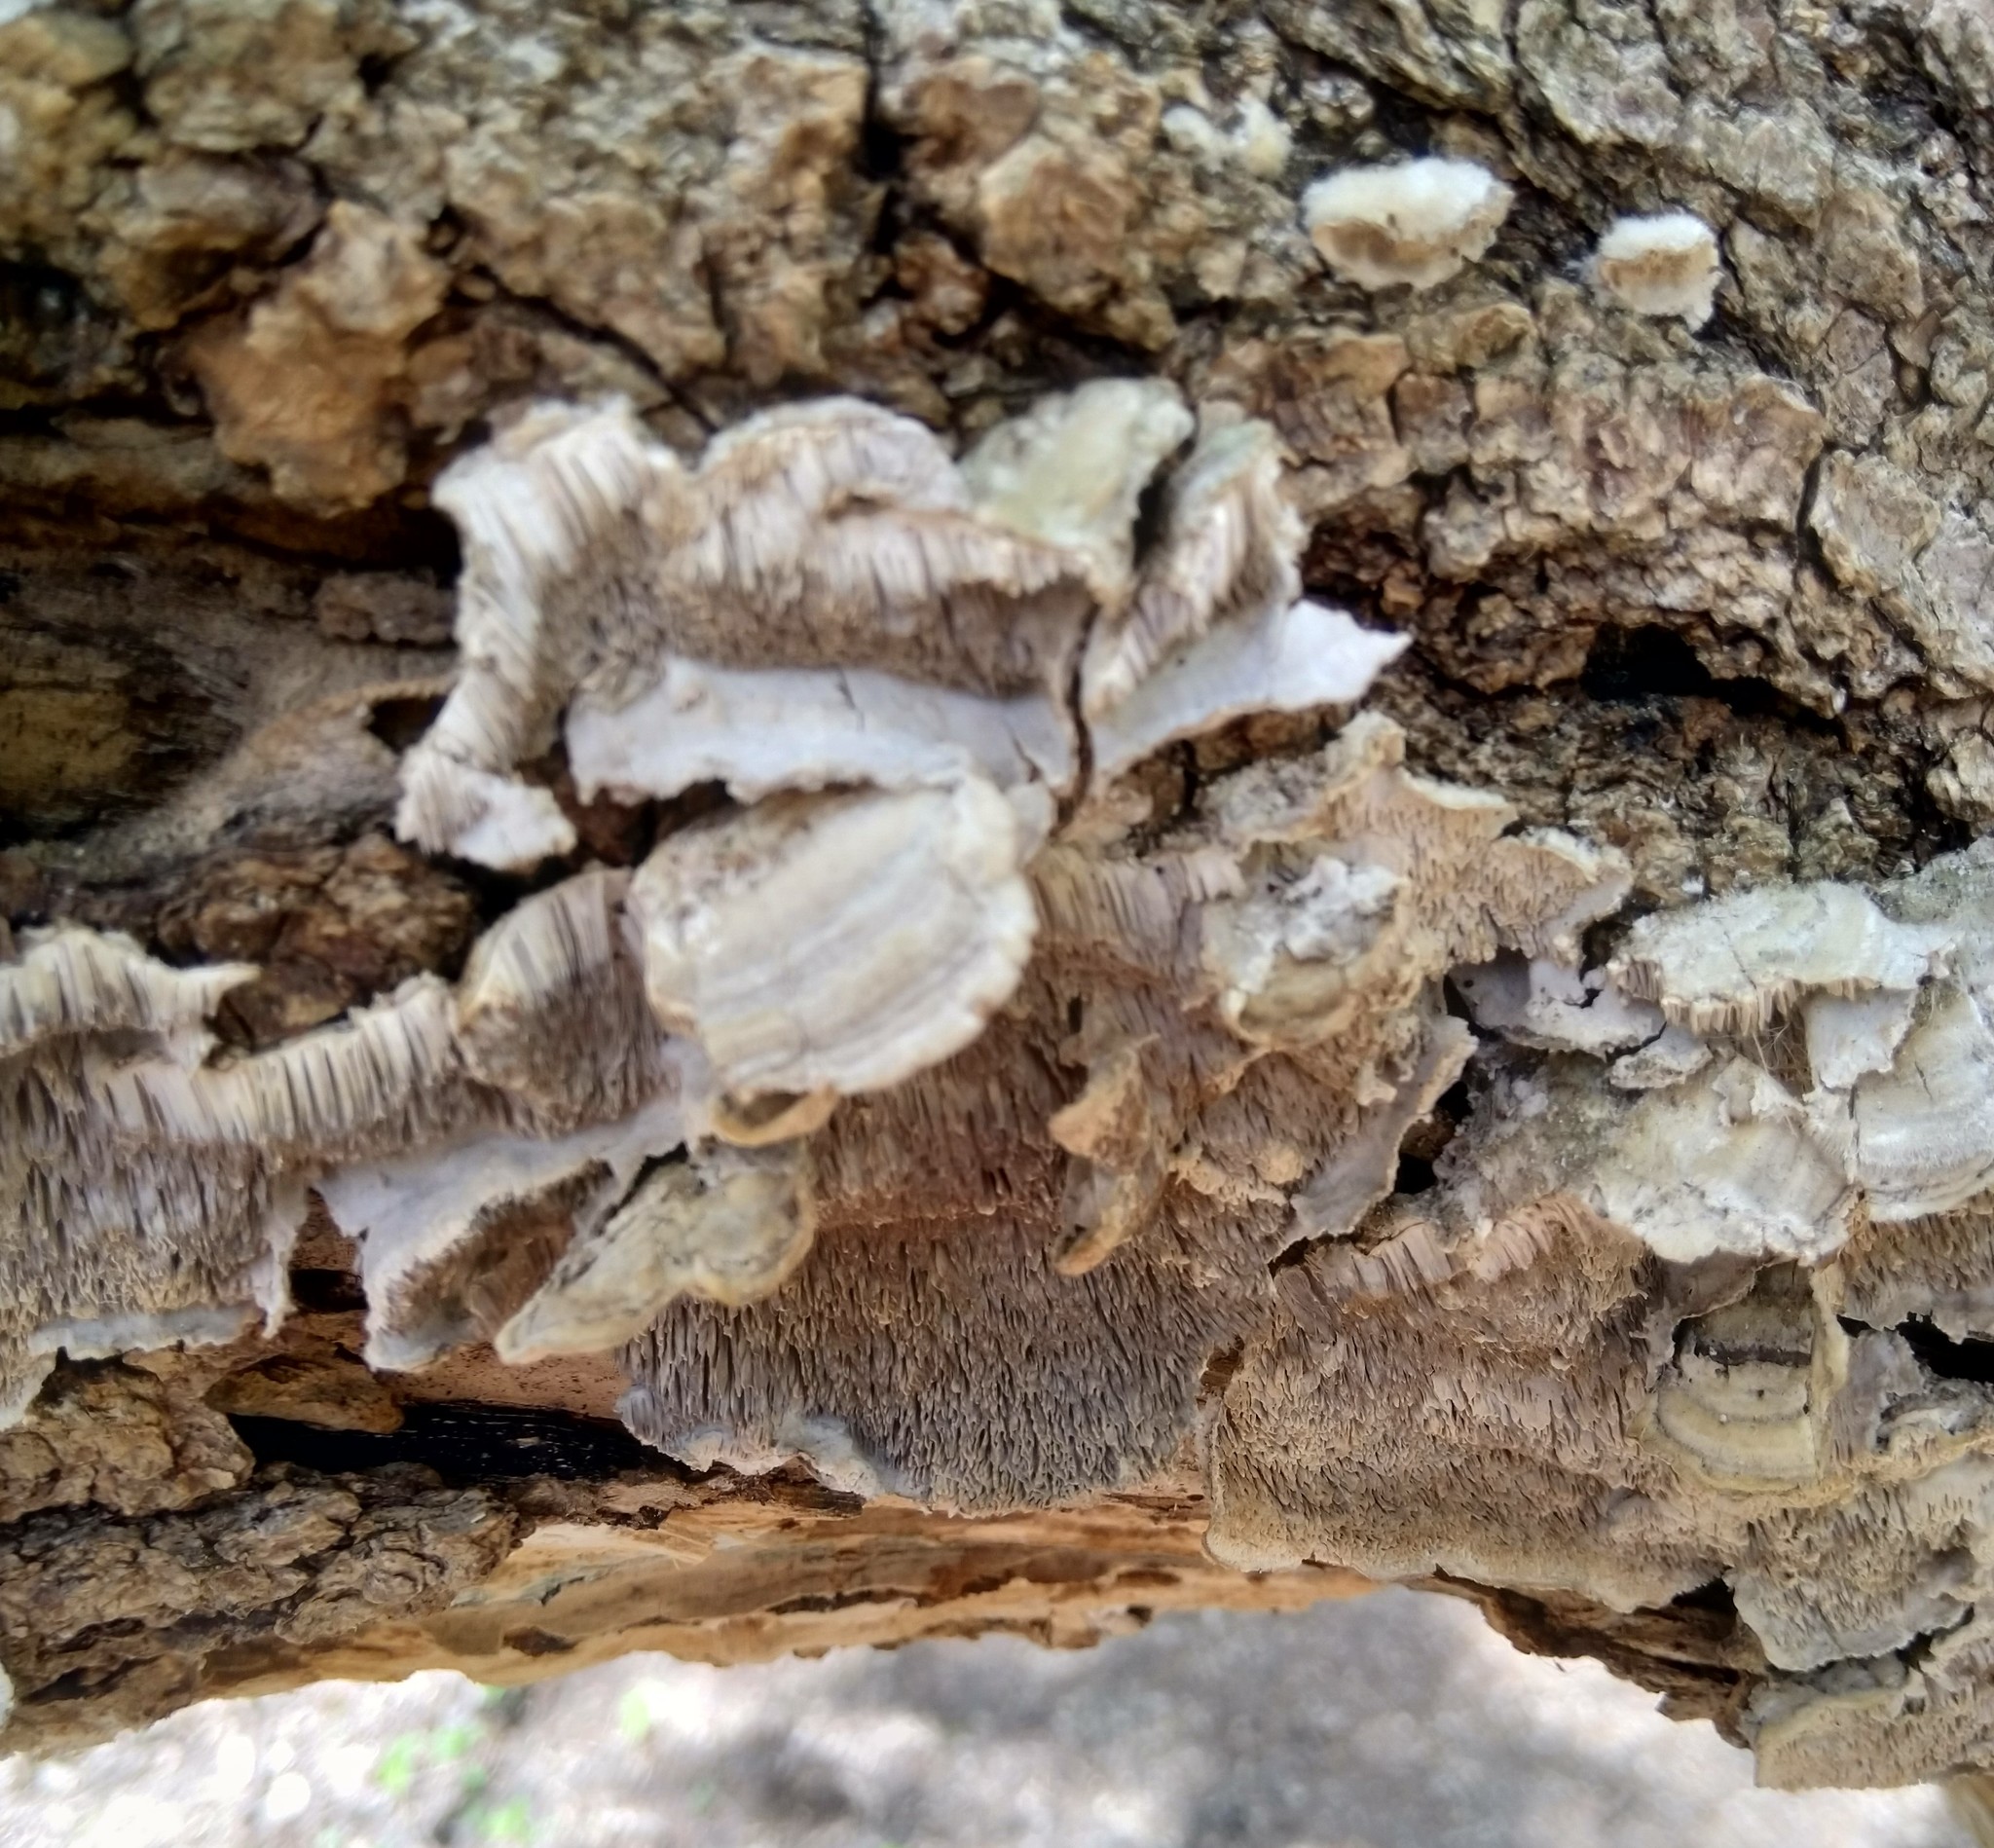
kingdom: Fungi
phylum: Basidiomycota
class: Agaricomycetes
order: Polyporales
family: Cerrenaceae
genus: Cerrena
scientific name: Cerrena unicolor
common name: Mossy maze polypore
